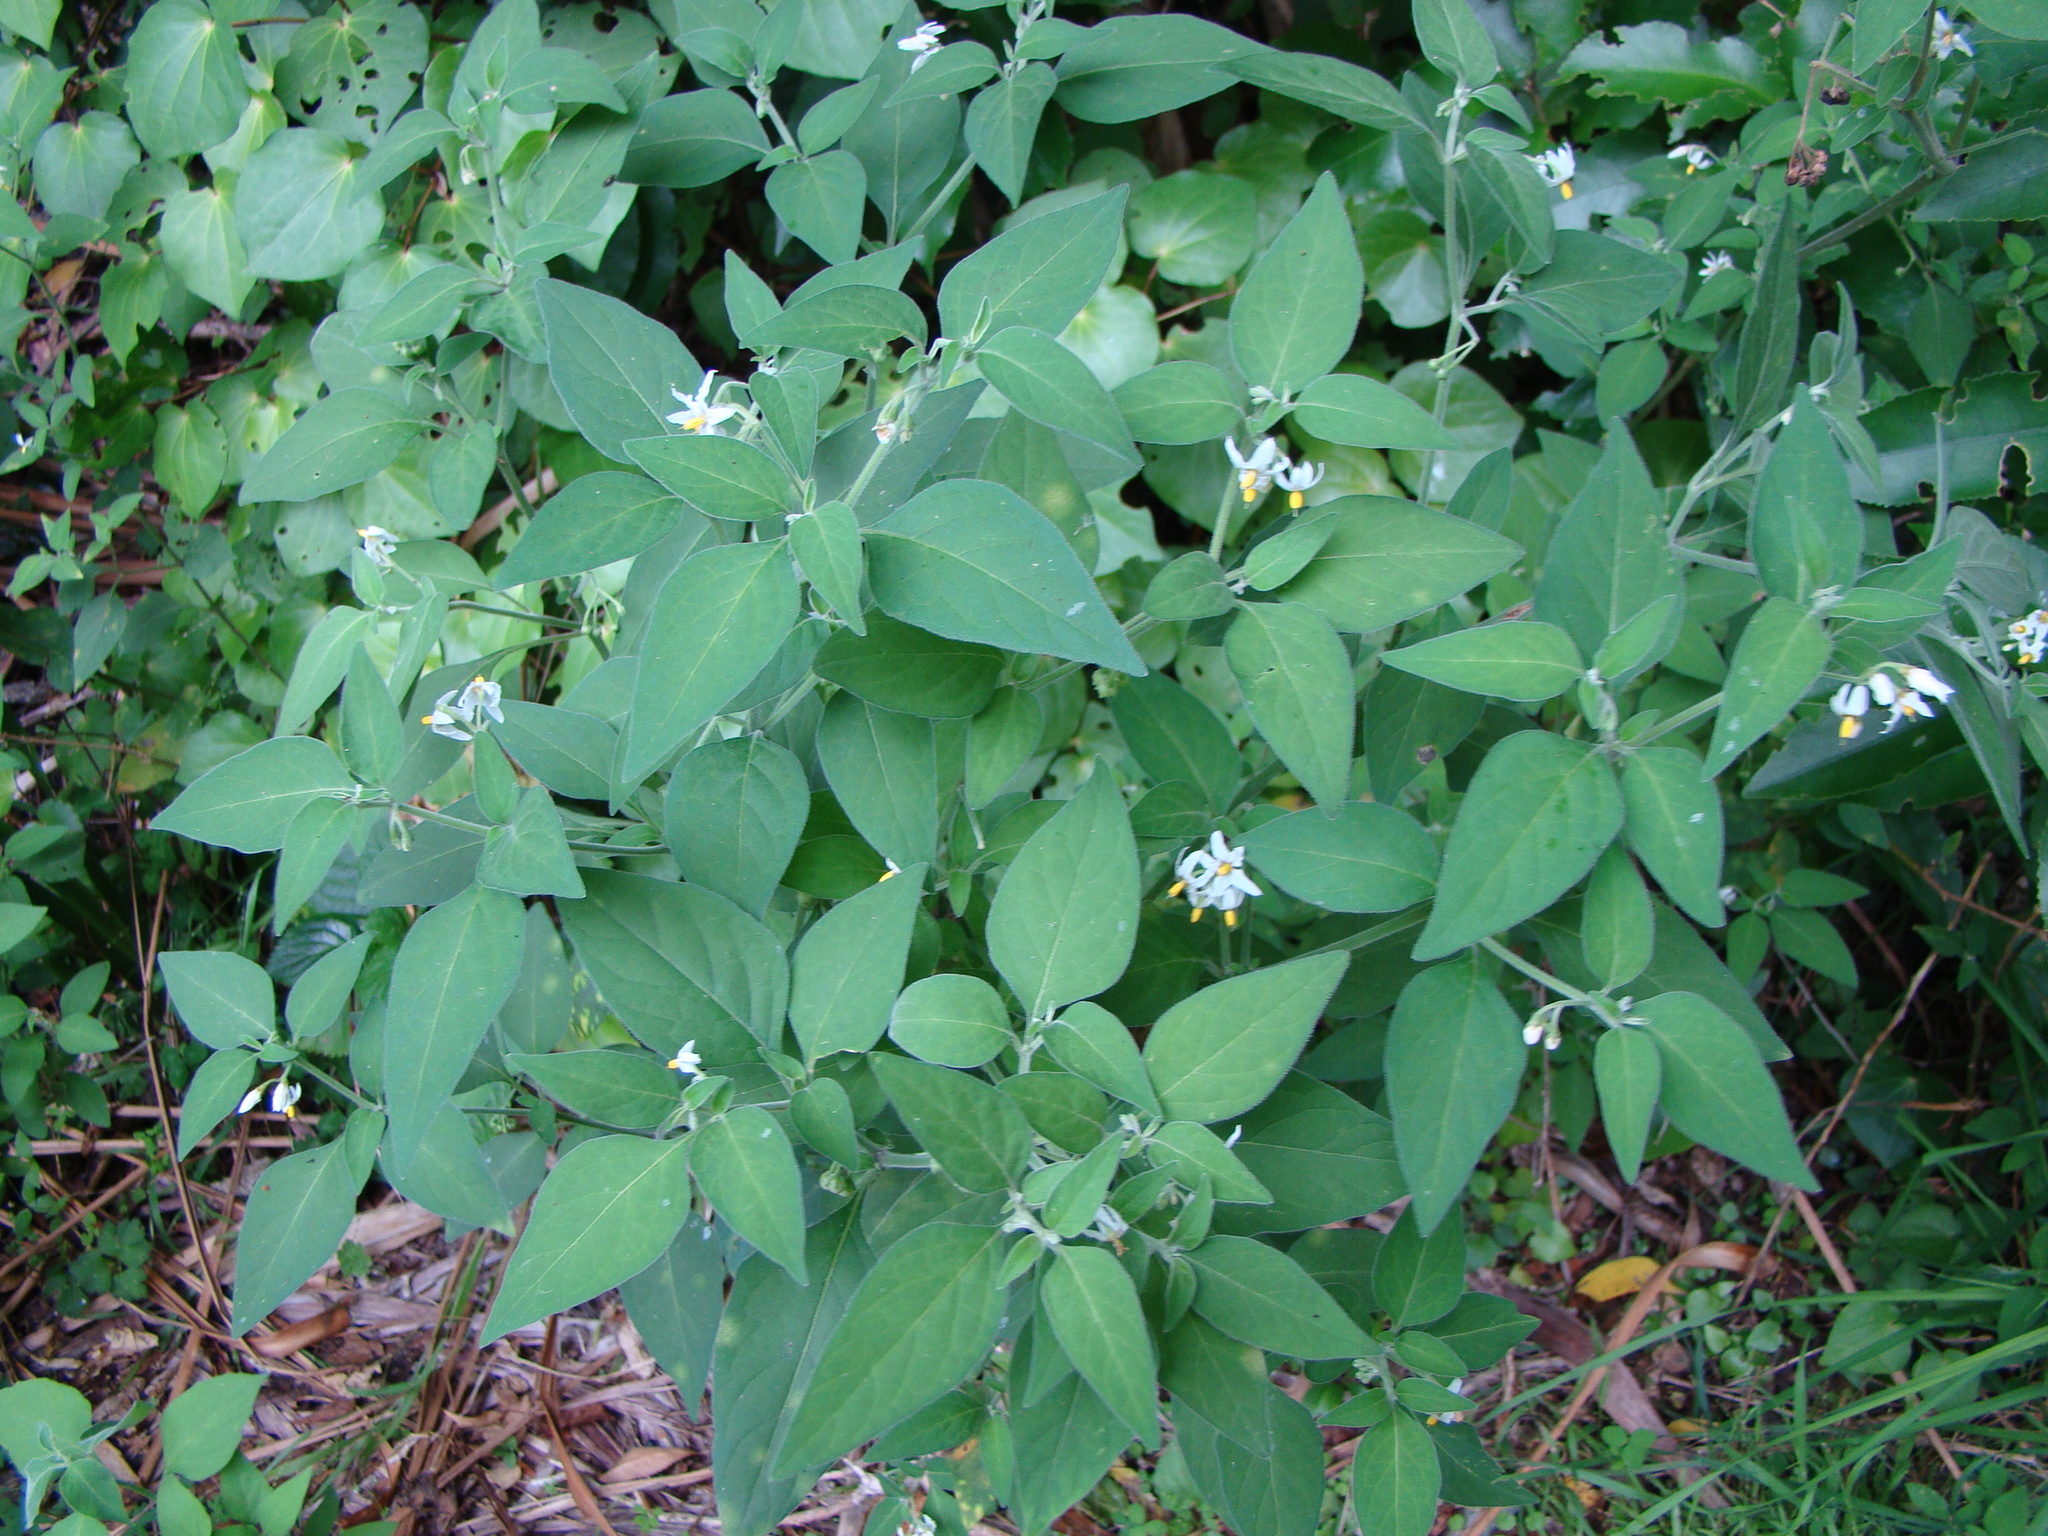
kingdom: Plantae
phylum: Tracheophyta
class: Magnoliopsida
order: Solanales
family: Solanaceae
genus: Solanum
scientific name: Solanum chenopodioides
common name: Tall nightshade
